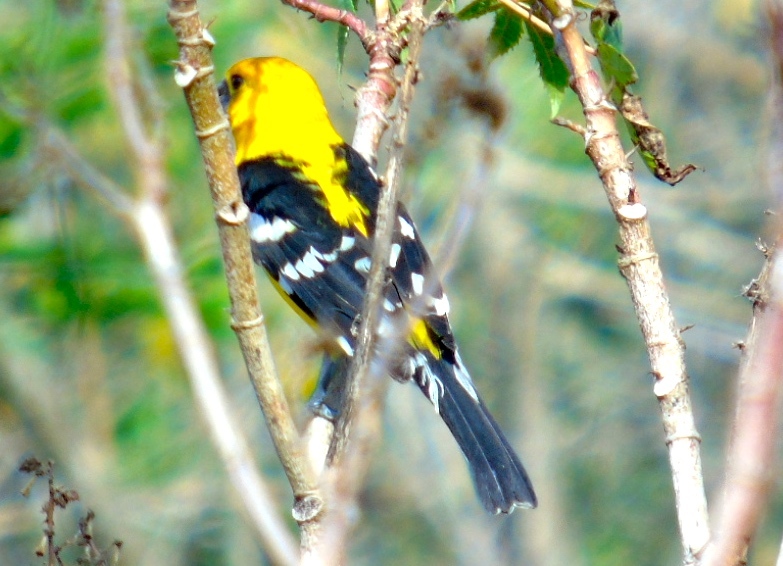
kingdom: Animalia
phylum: Chordata
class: Aves
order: Passeriformes
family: Cardinalidae
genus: Pheucticus
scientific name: Pheucticus chrysopeplus
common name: Yellow grosbeak
